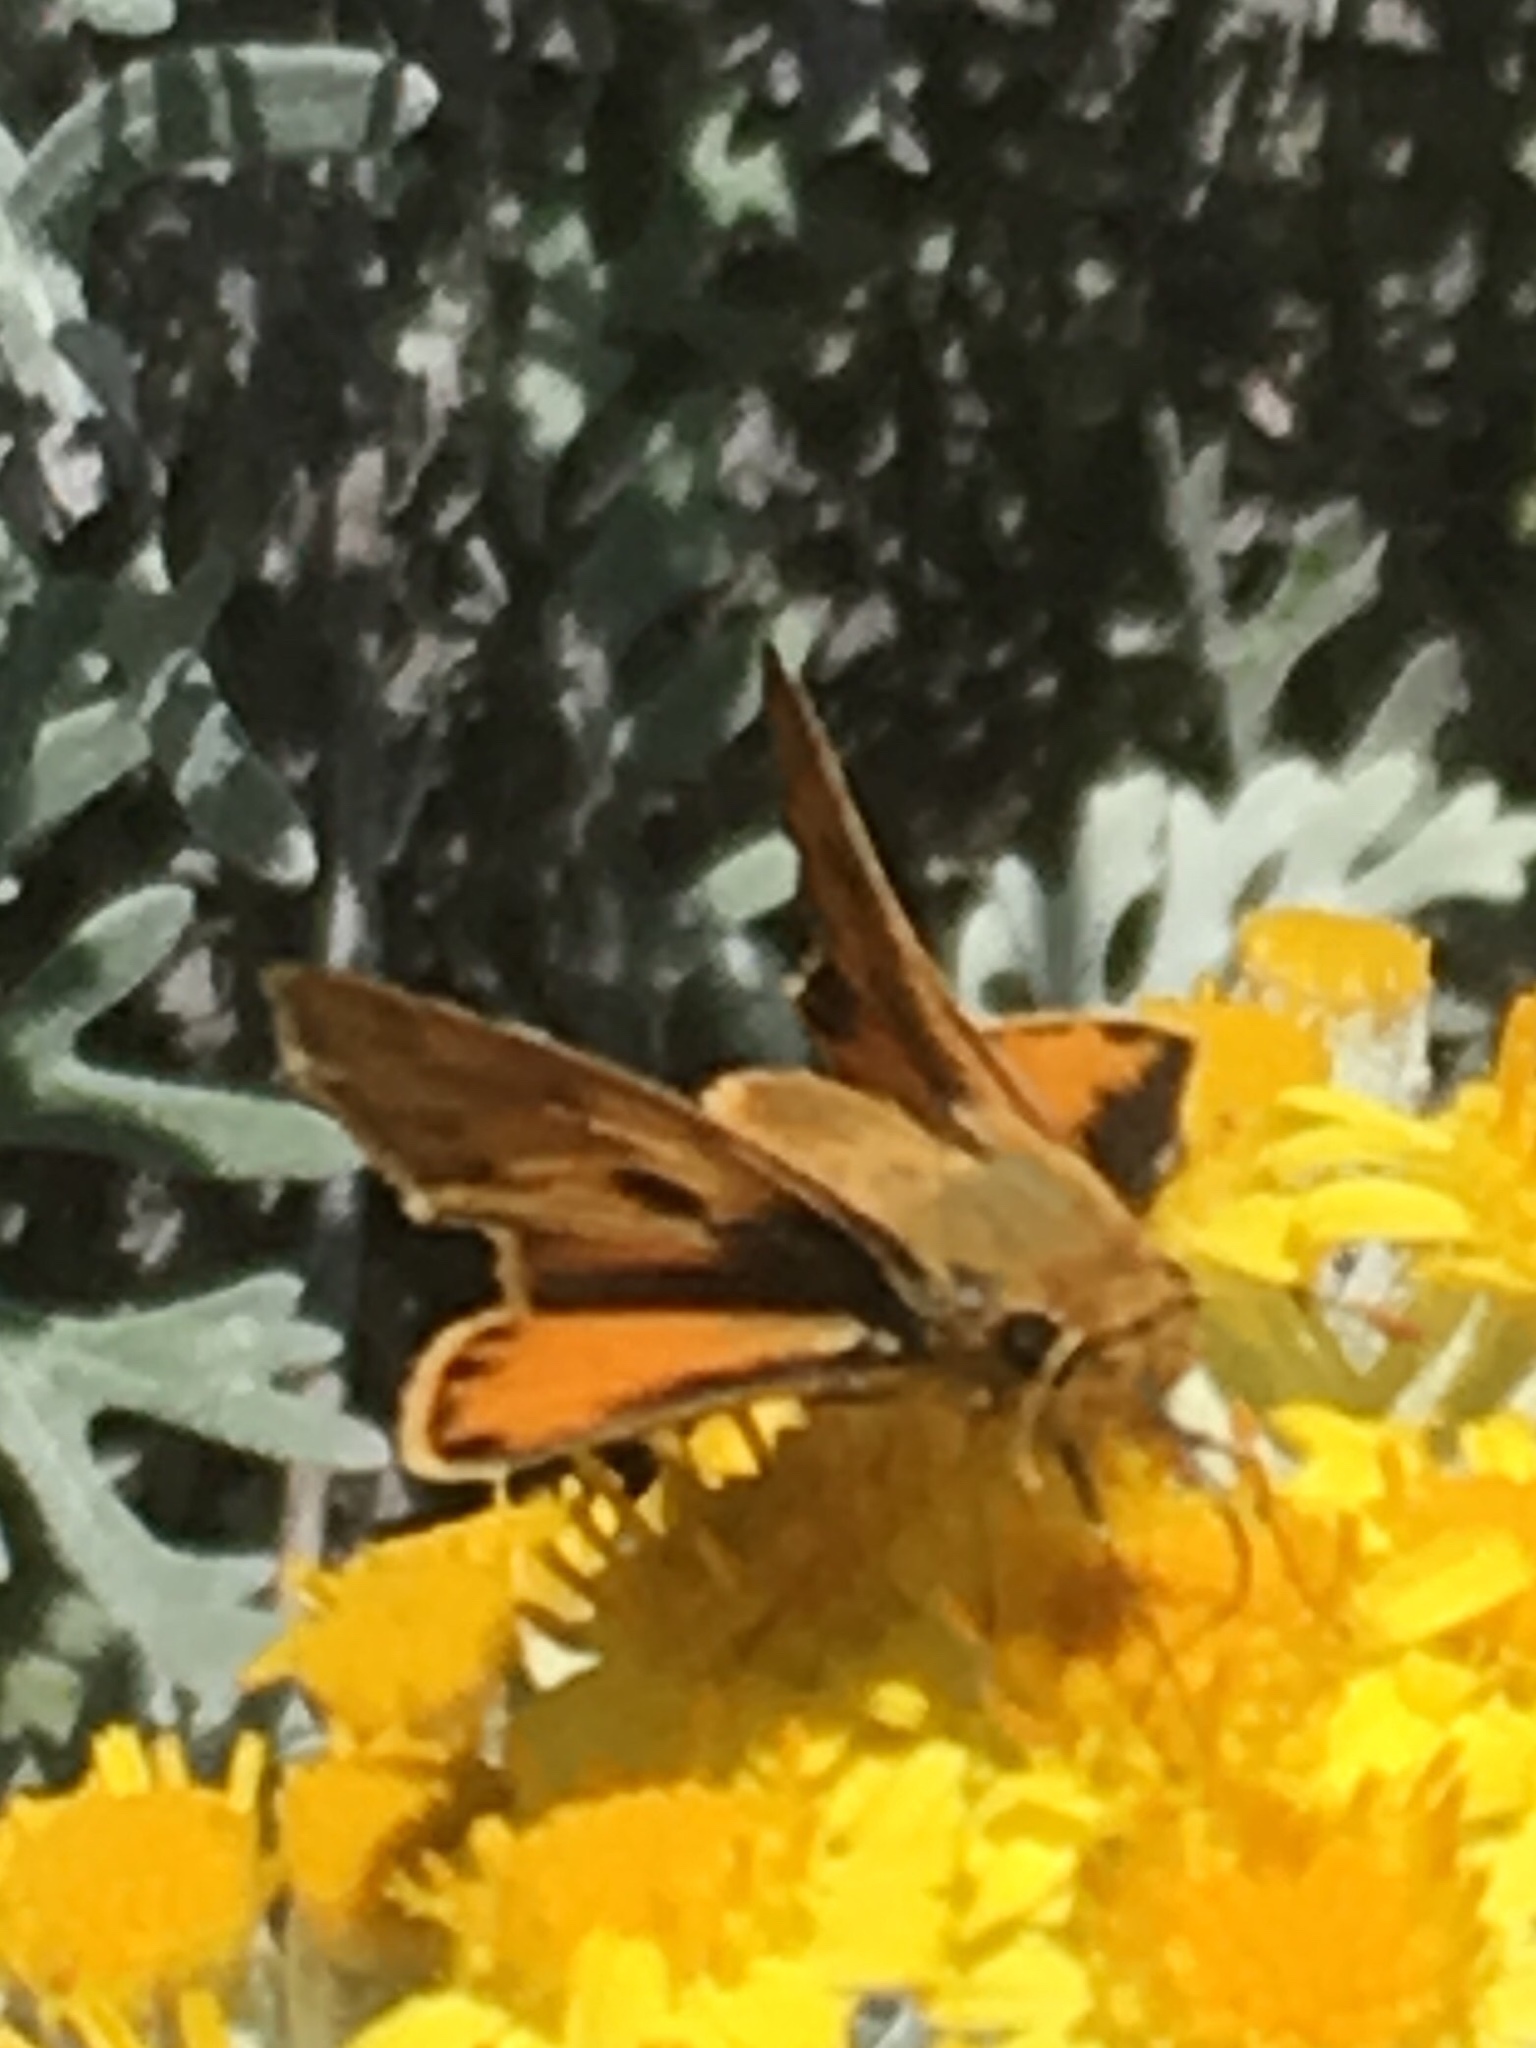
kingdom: Animalia
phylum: Arthropoda
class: Insecta
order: Lepidoptera
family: Hesperiidae
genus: Hylephila
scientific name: Hylephila phyleus
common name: Fiery skipper
